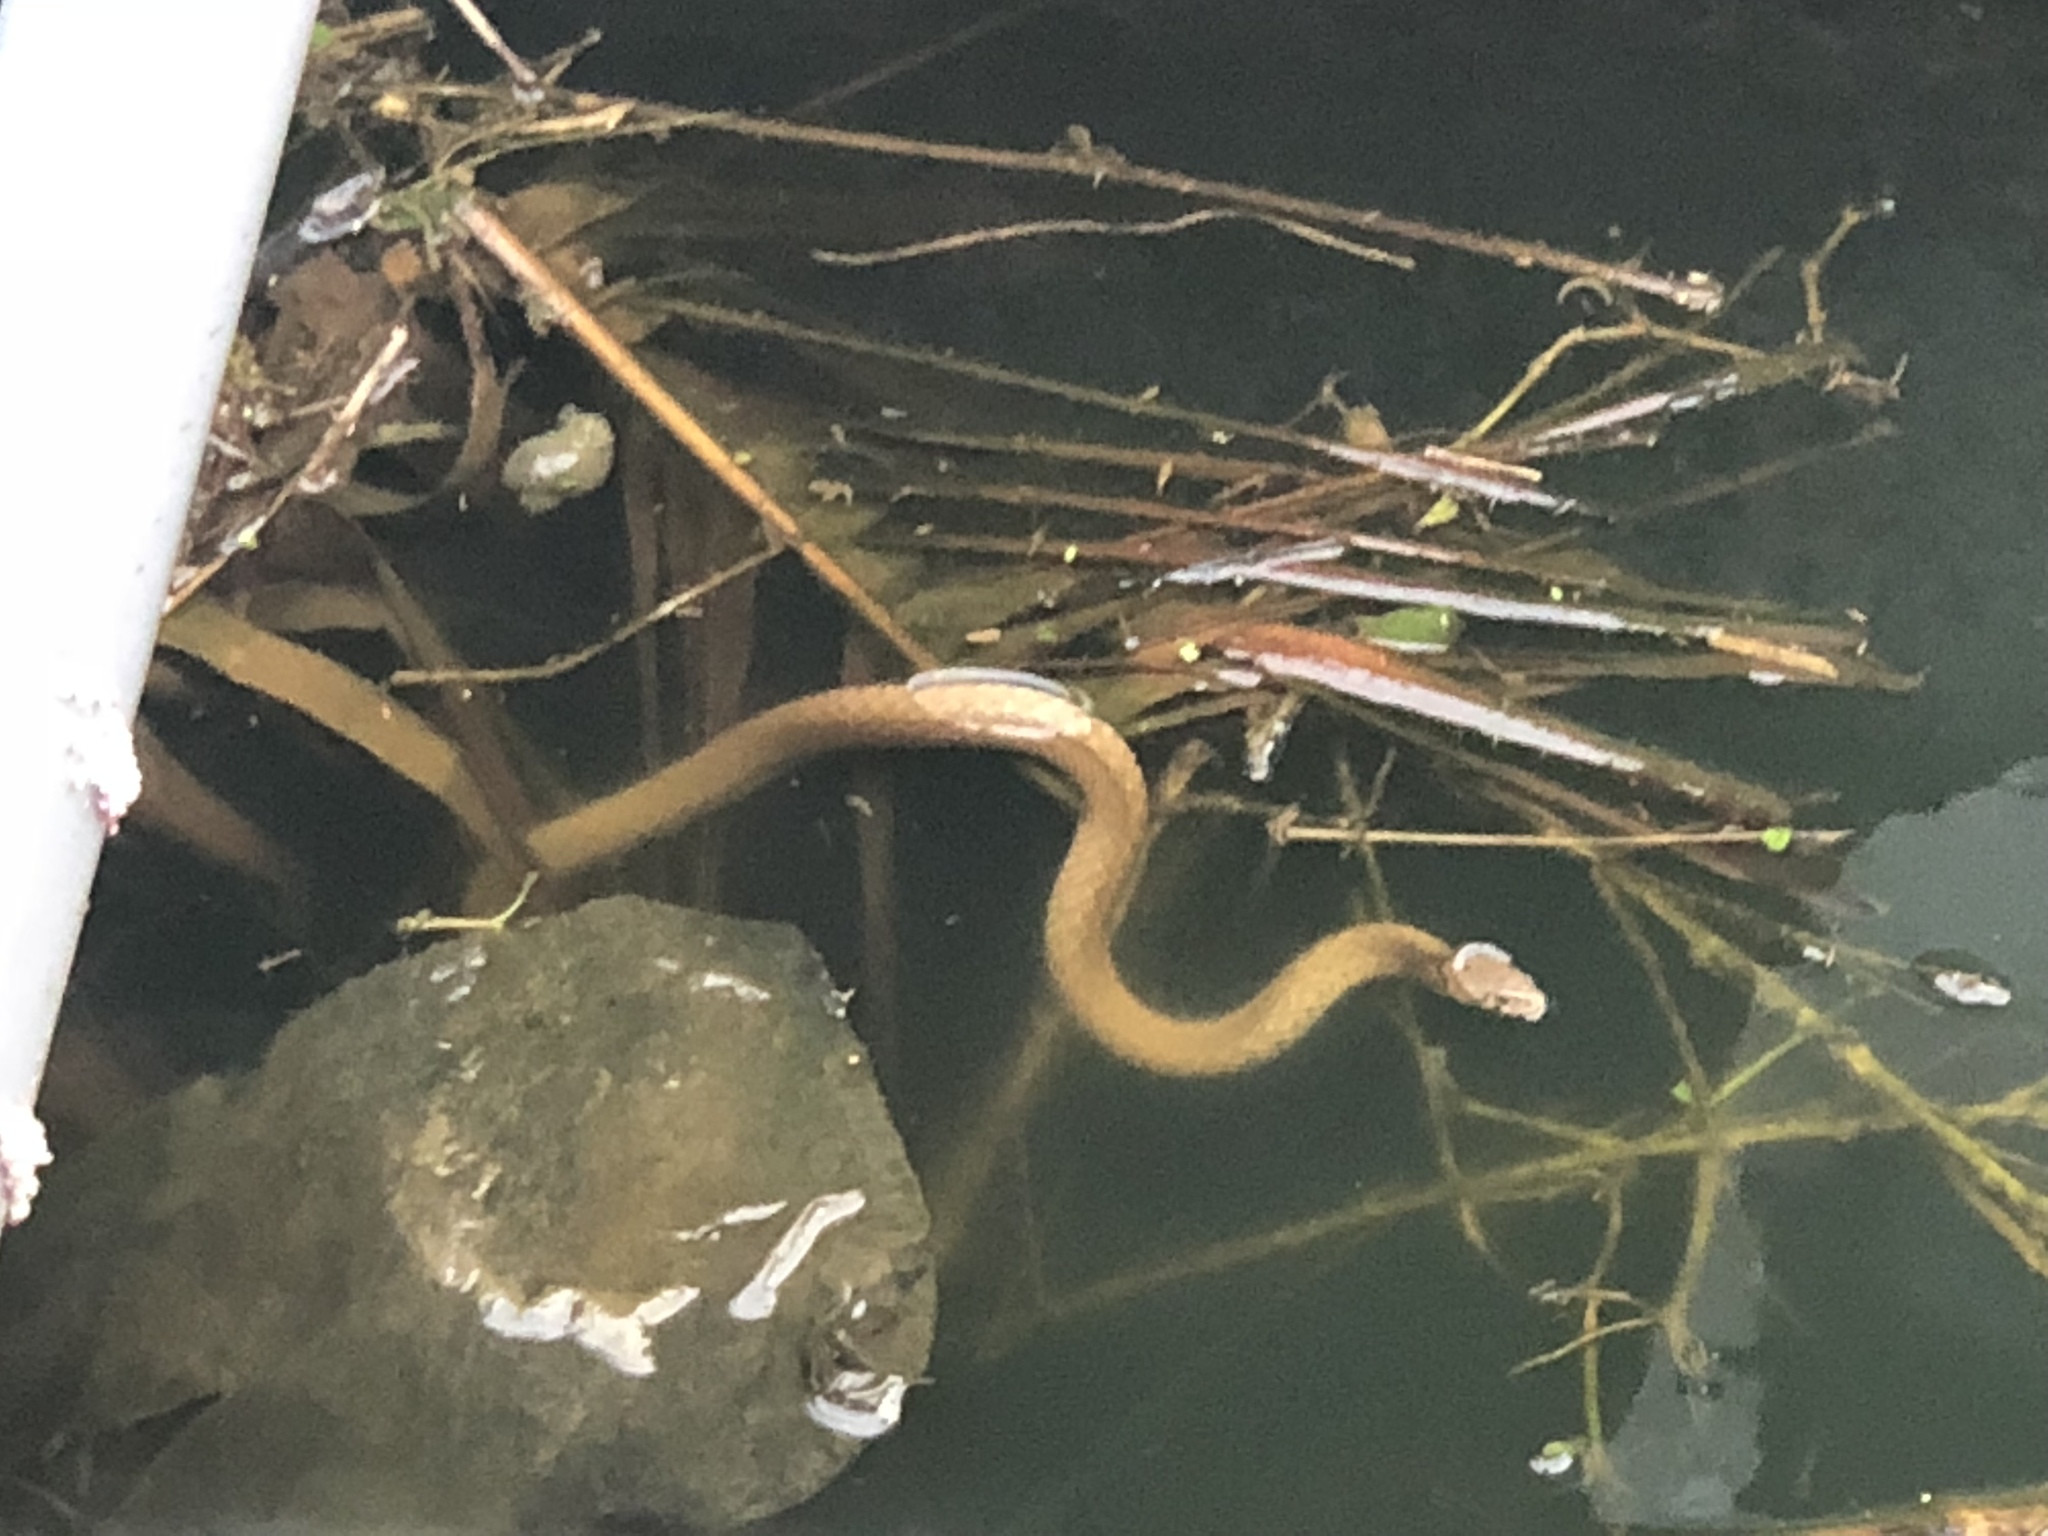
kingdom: Animalia
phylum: Chordata
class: Squamata
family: Colubridae
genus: Elaphe
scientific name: Elaphe carinata
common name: Taiwan stink snake
